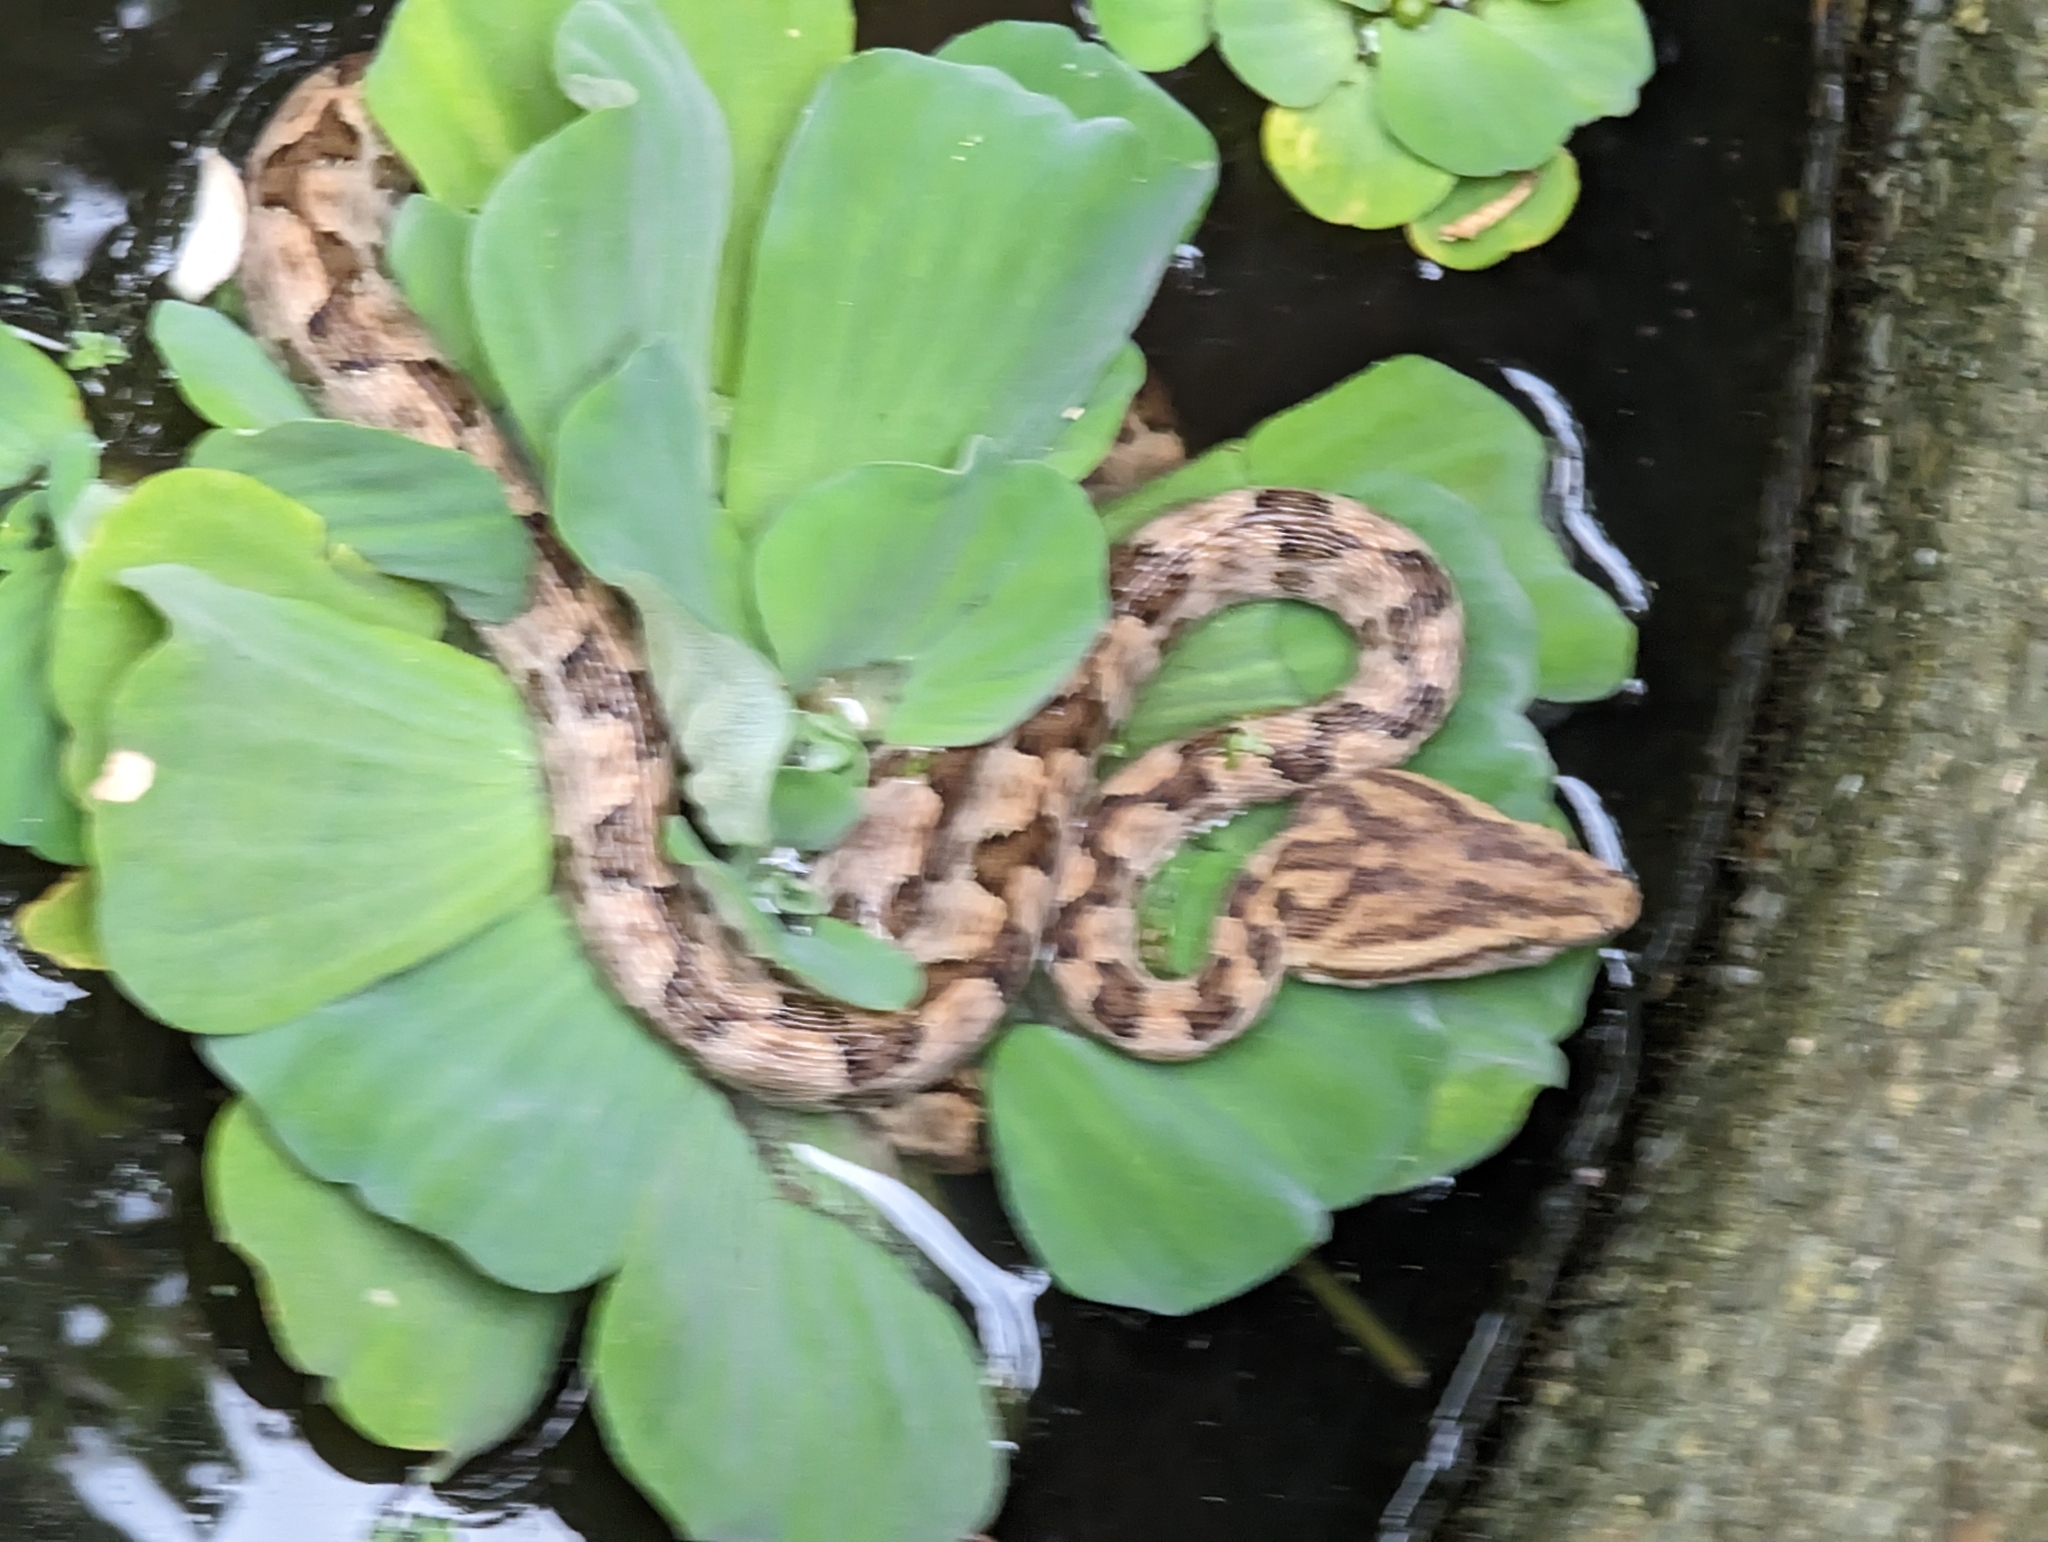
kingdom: Animalia
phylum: Chordata
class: Squamata
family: Viperidae
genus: Protobothrops
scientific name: Protobothrops mucrosquamatus
